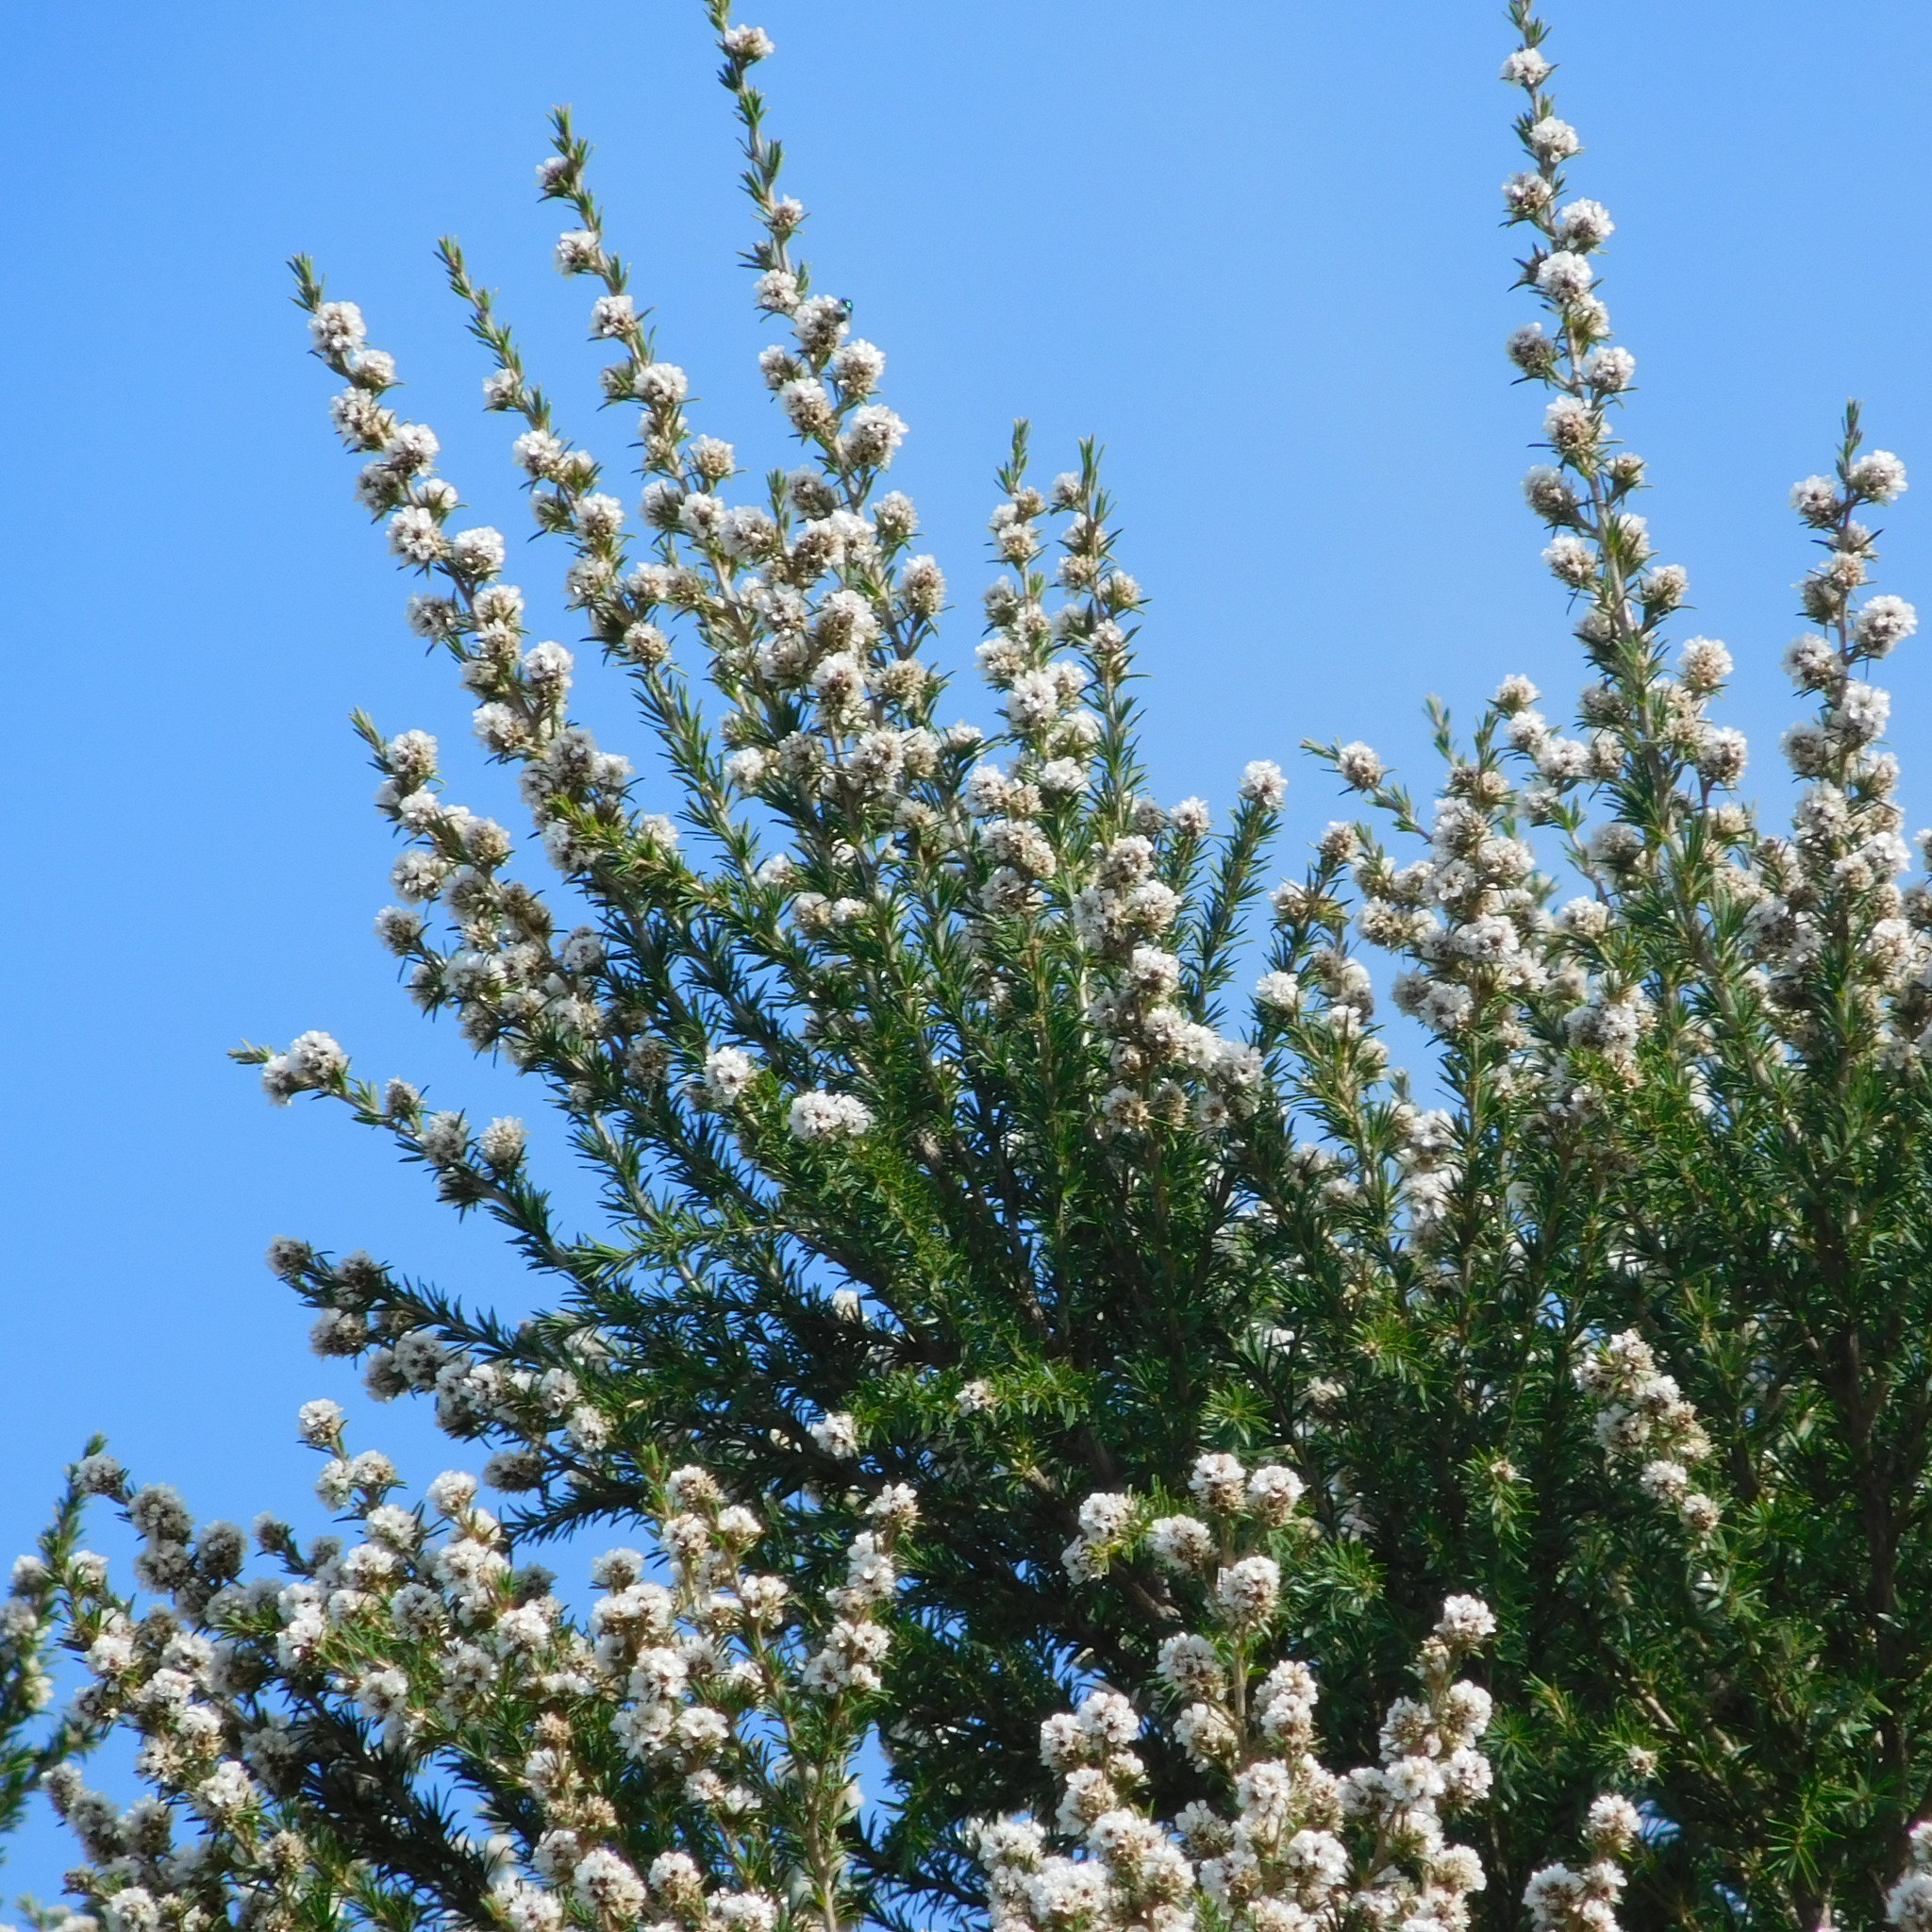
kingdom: Plantae
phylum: Tracheophyta
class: Magnoliopsida
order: Myrtales
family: Myrtaceae
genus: Taxandria
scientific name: Taxandria juniperina
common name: Warren river-cedar
